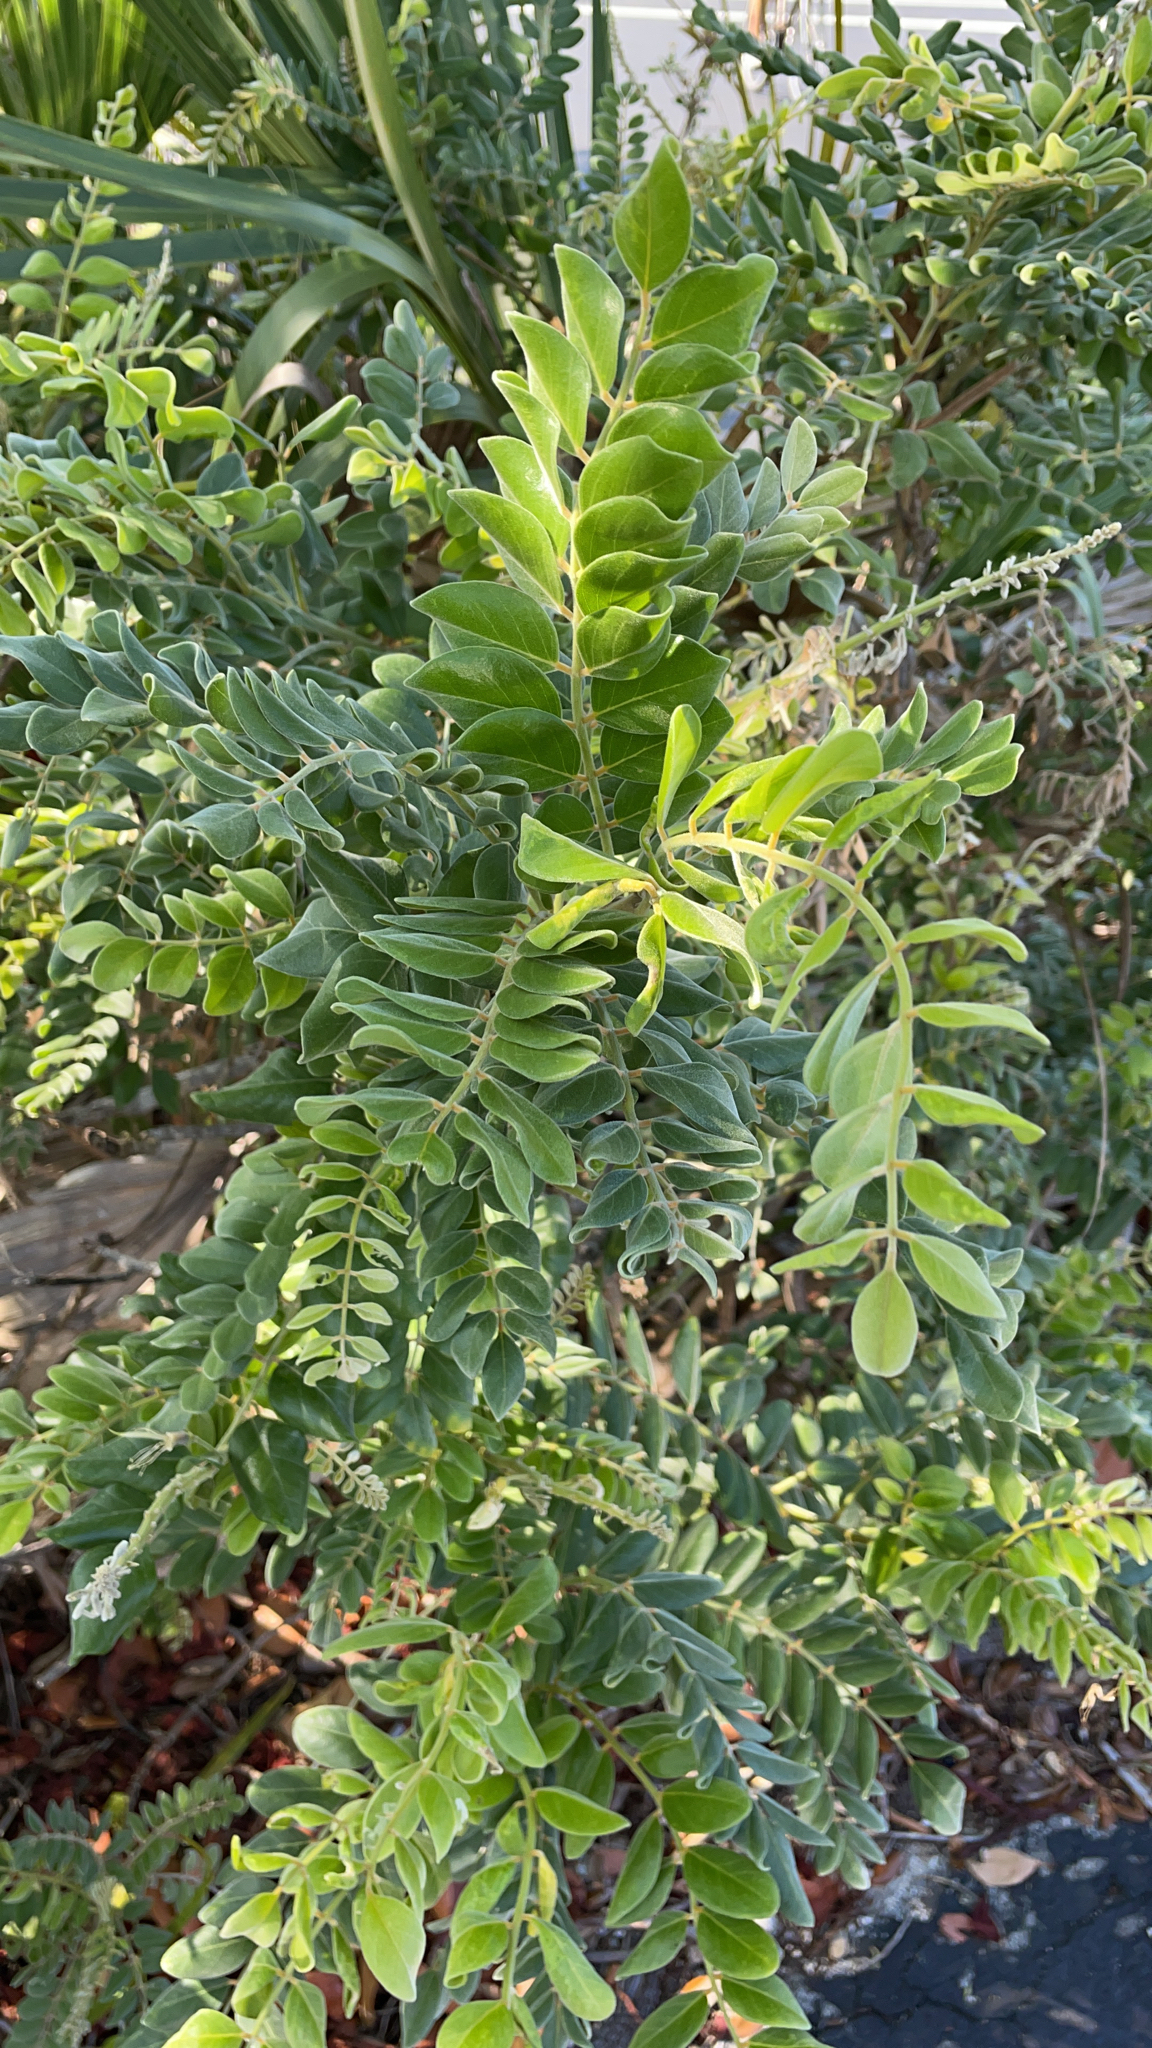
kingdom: Plantae
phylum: Tracheophyta
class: Magnoliopsida
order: Fabales
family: Fabaceae
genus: Sophora
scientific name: Sophora tomentosa
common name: Yellow necklacepod
